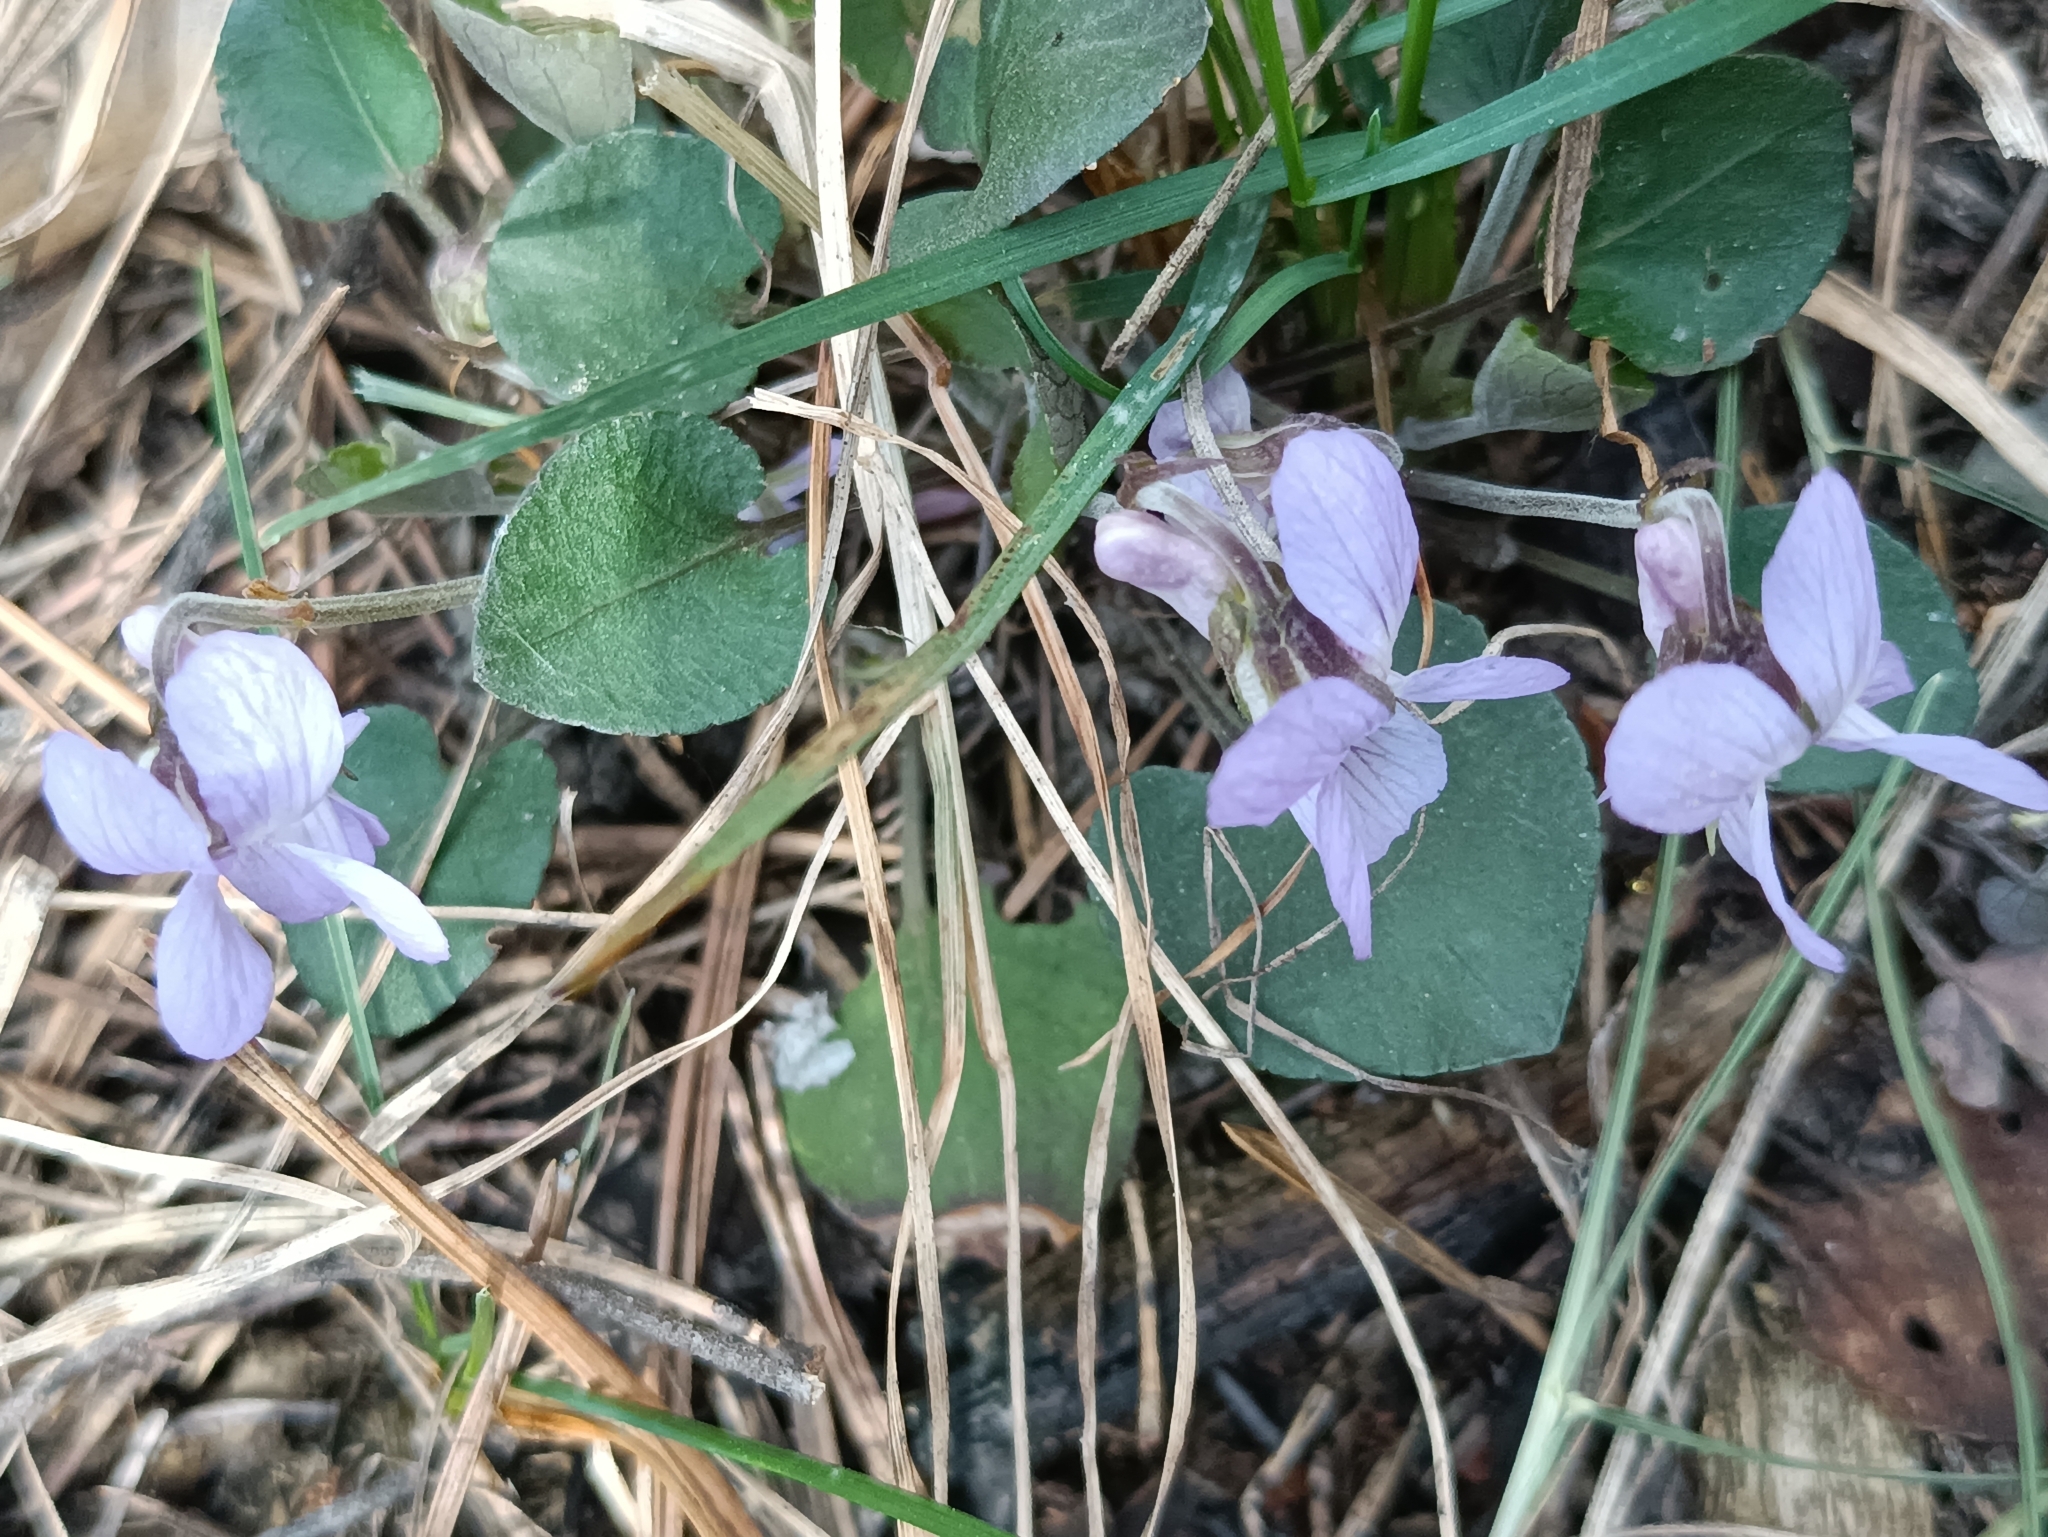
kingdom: Plantae
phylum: Tracheophyta
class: Magnoliopsida
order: Malpighiales
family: Violaceae
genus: Viola
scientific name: Viola rupestris
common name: Teesdale violet
